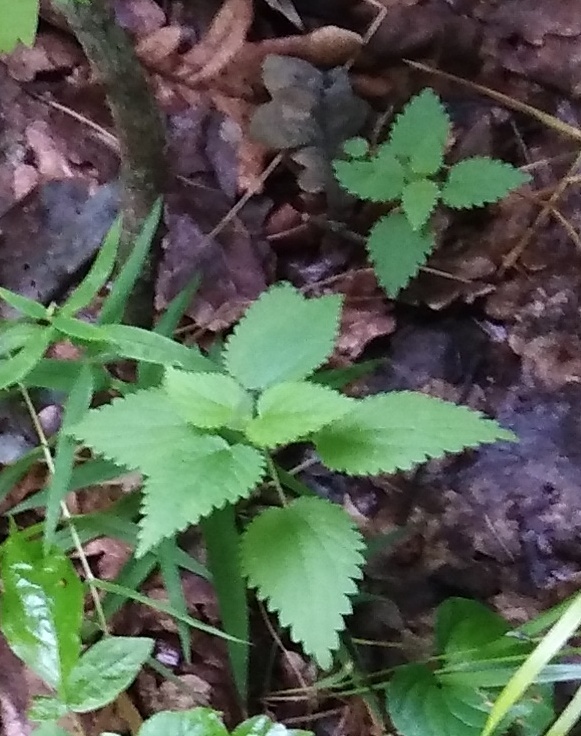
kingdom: Plantae
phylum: Tracheophyta
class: Magnoliopsida
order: Rosales
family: Urticaceae
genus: Urtica
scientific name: Urtica dioica
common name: Common nettle
